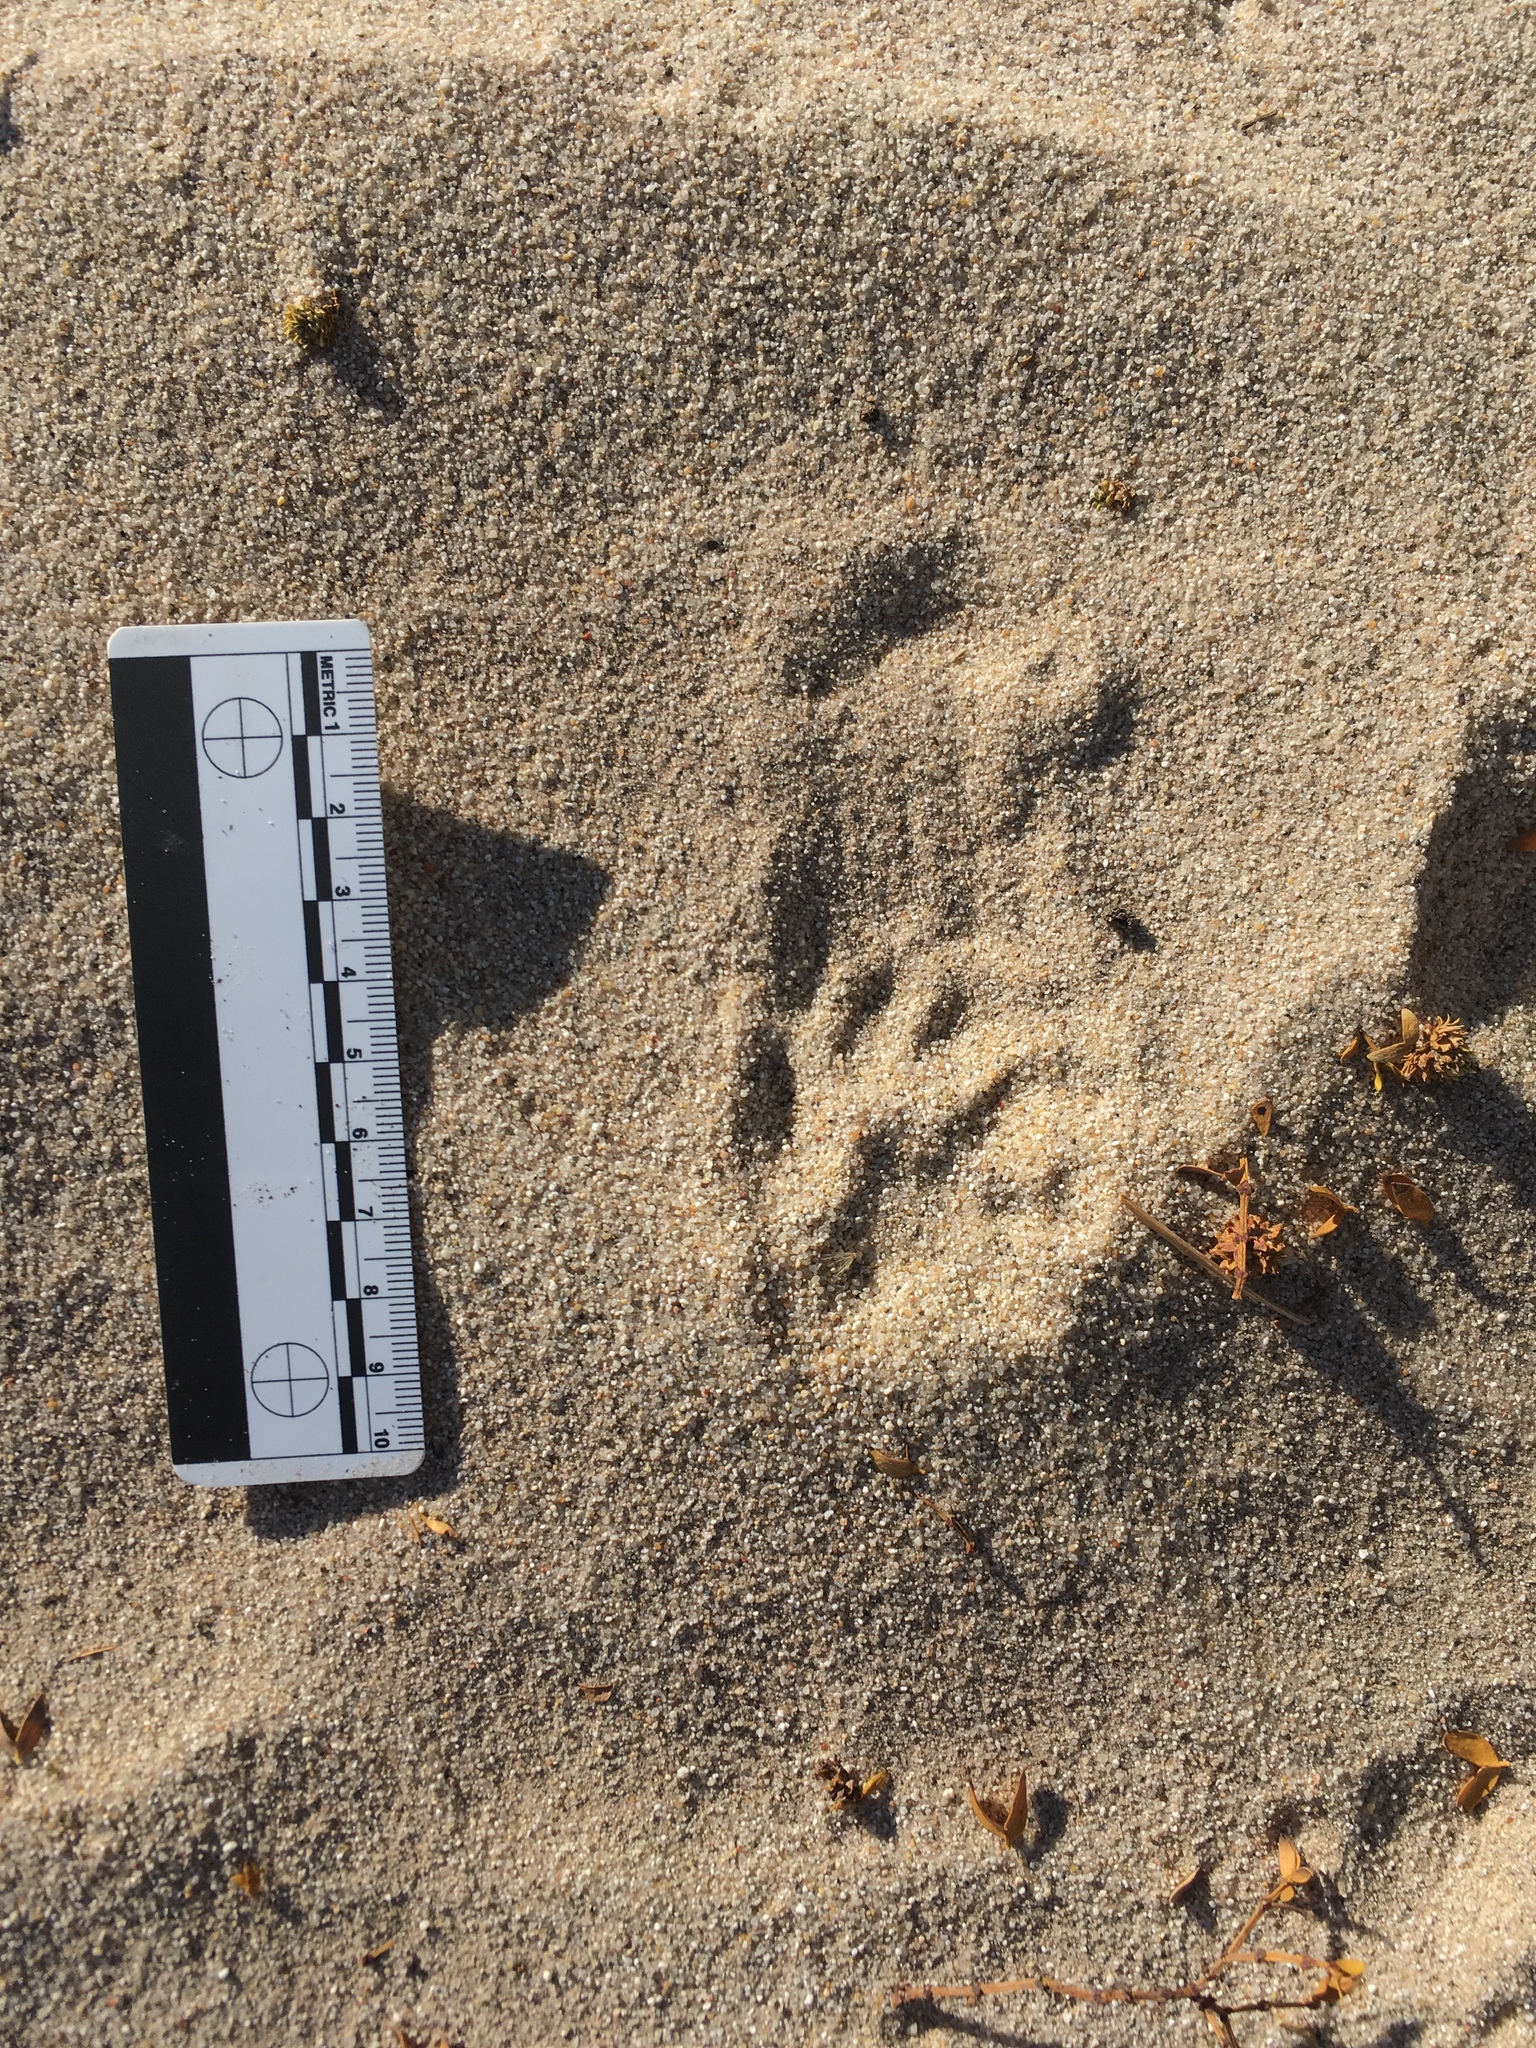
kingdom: Animalia
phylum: Chordata
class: Mammalia
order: Carnivora
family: Mustelidae
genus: Taxidea
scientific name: Taxidea taxus
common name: American badger
